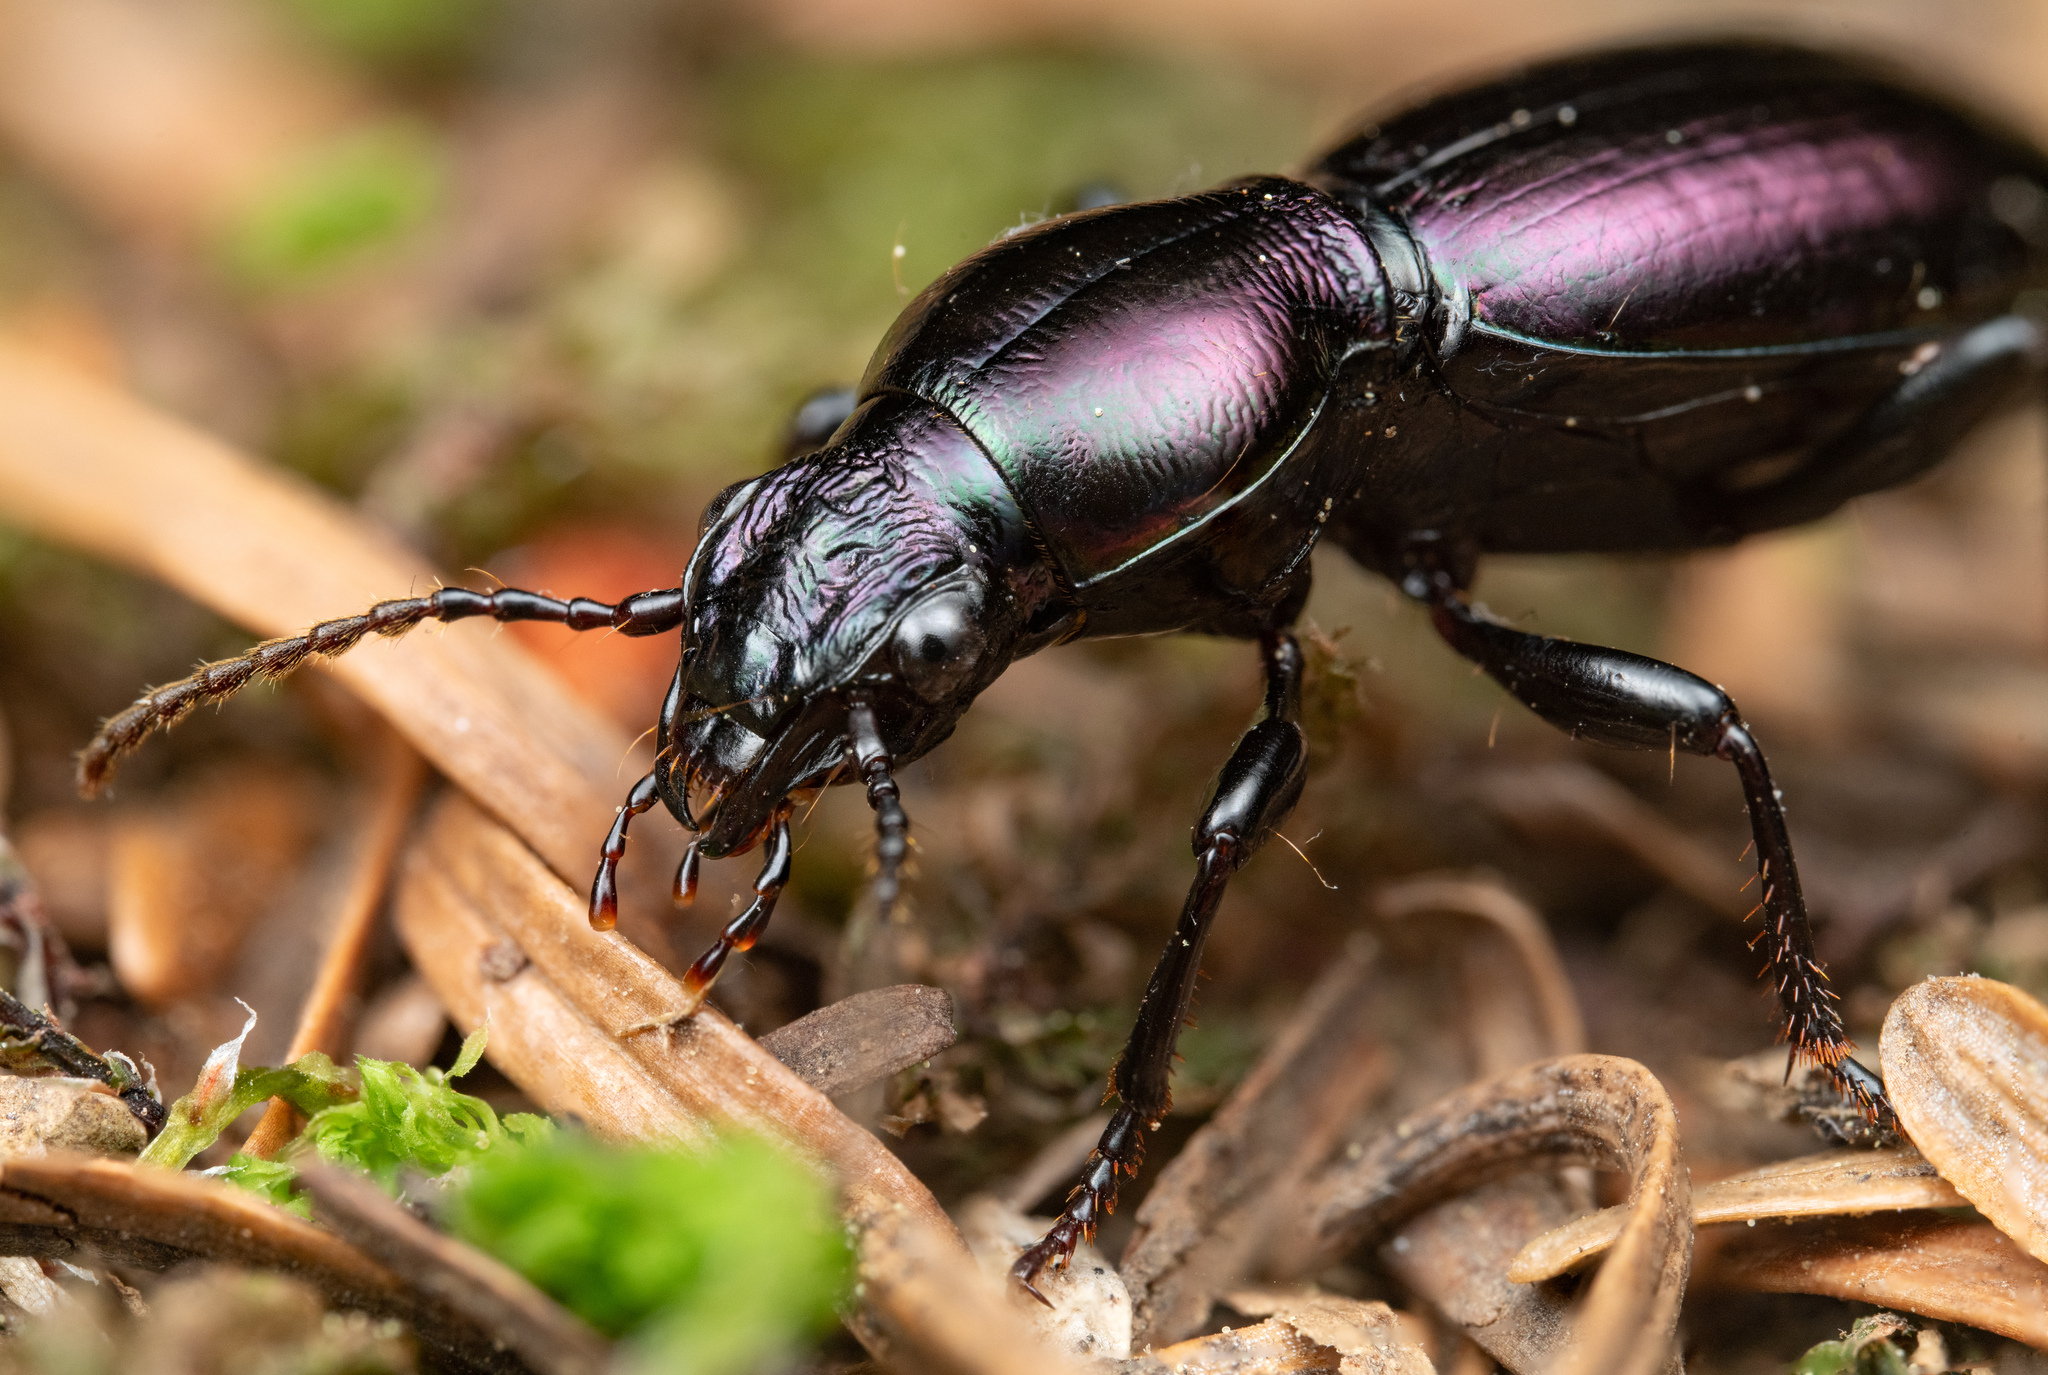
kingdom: Animalia
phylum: Arthropoda
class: Insecta
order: Coleoptera
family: Carabidae
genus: Zacotus
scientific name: Zacotus matthewsii
